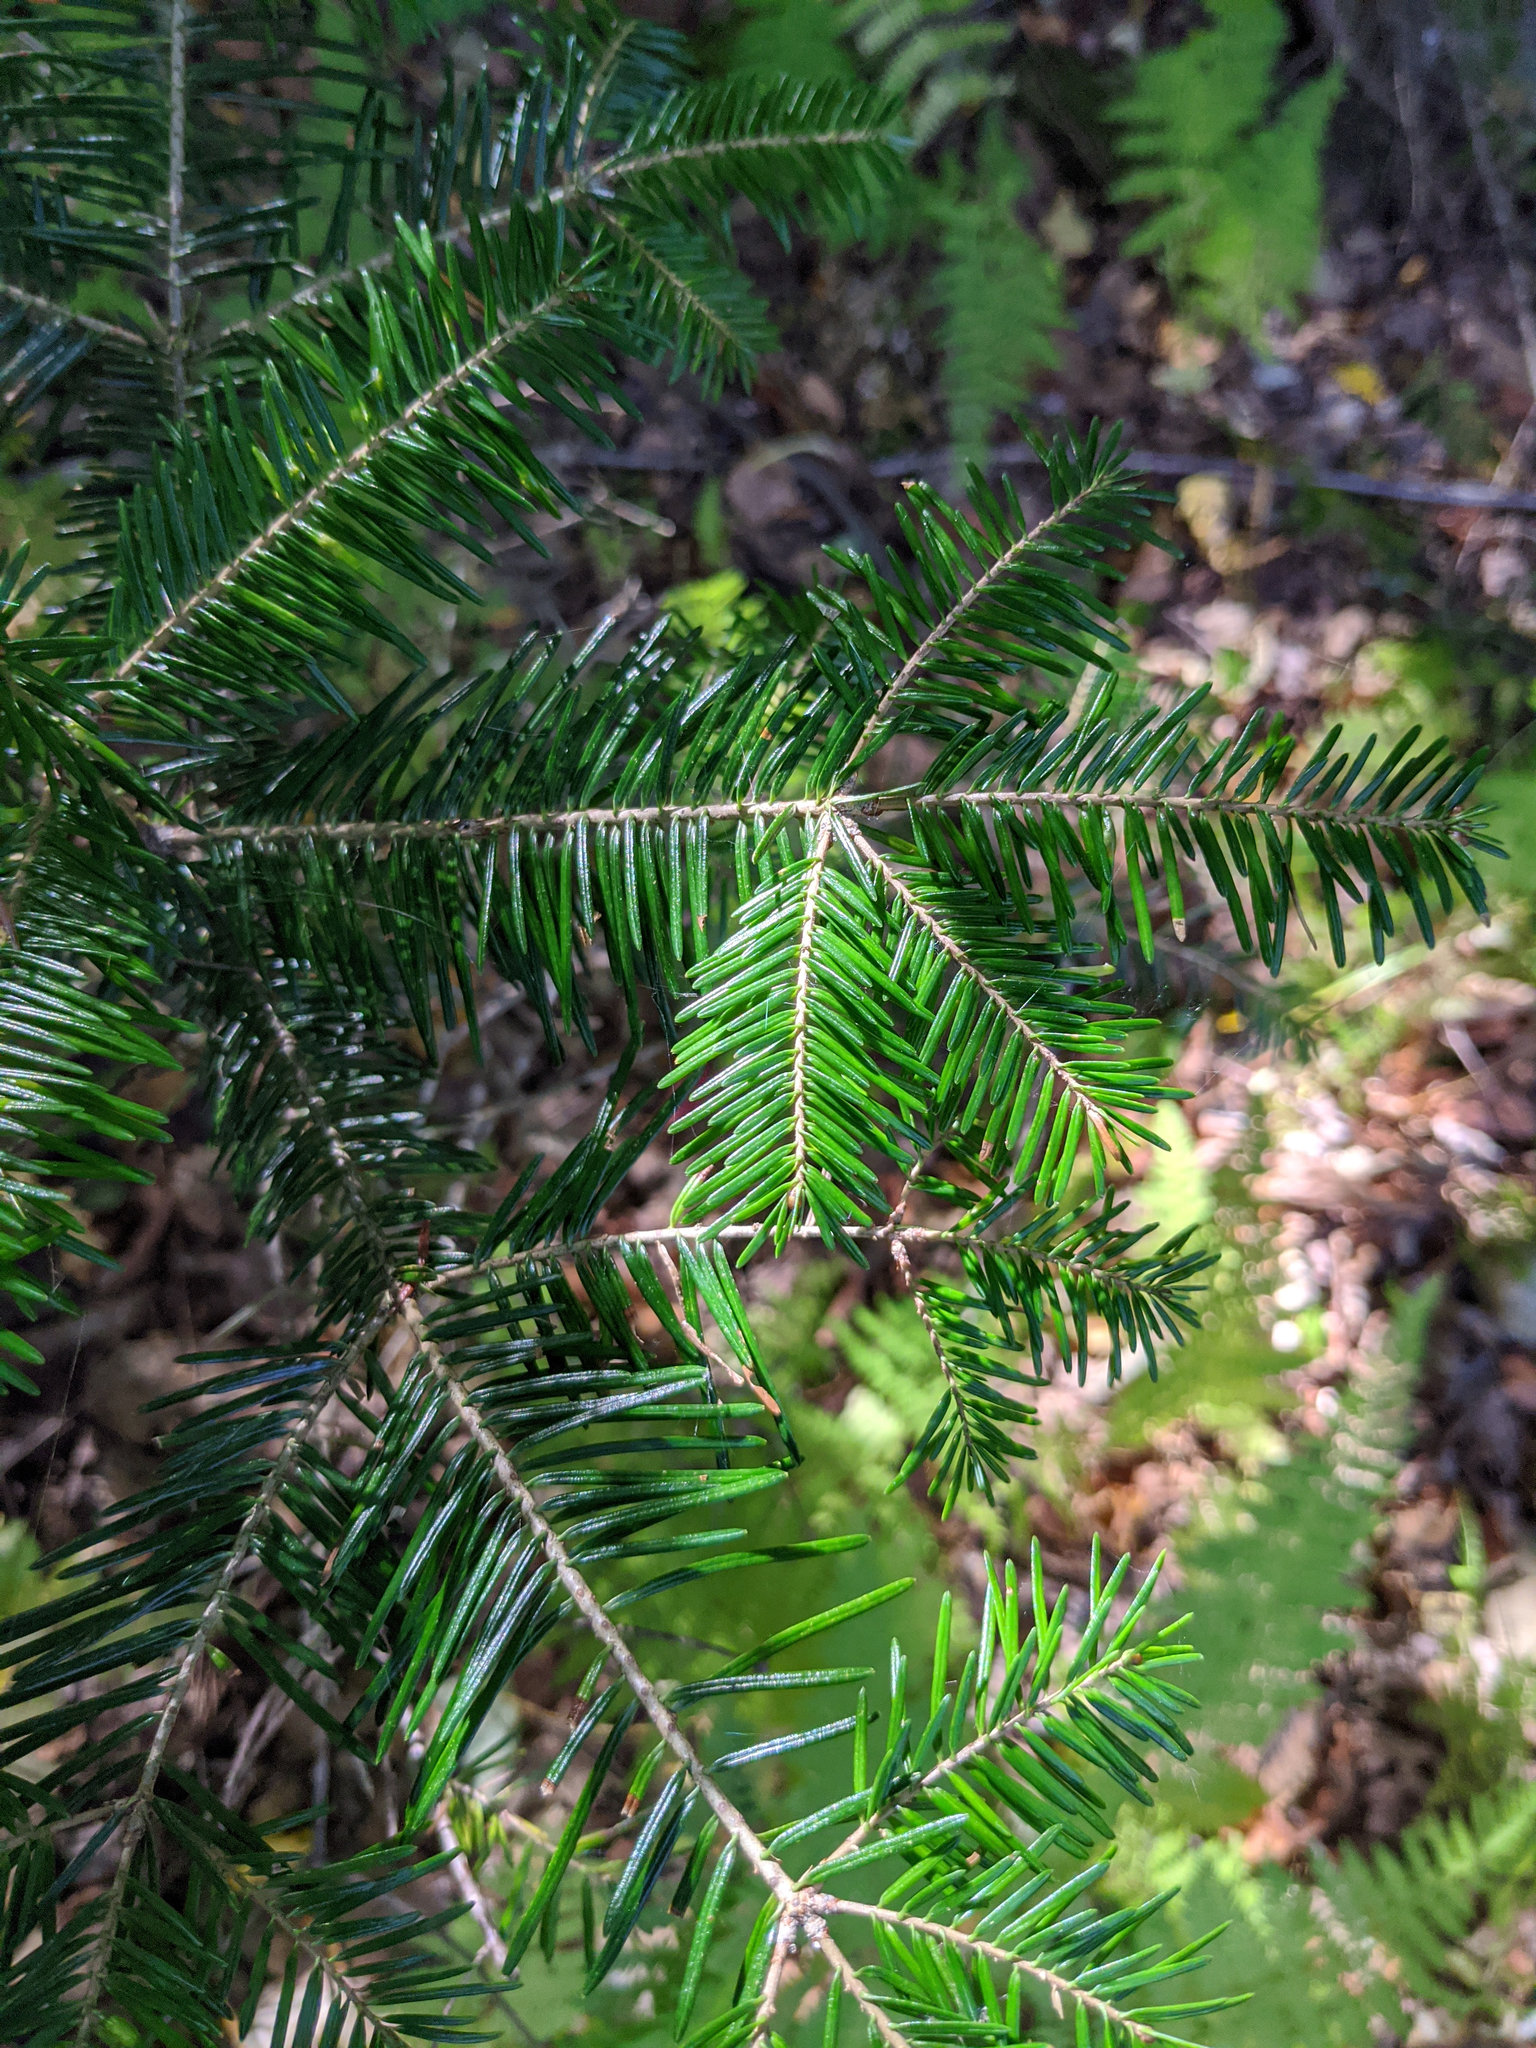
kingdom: Plantae
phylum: Tracheophyta
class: Pinopsida
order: Pinales
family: Pinaceae
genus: Abies
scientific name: Abies balsamea
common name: Balsam fir
